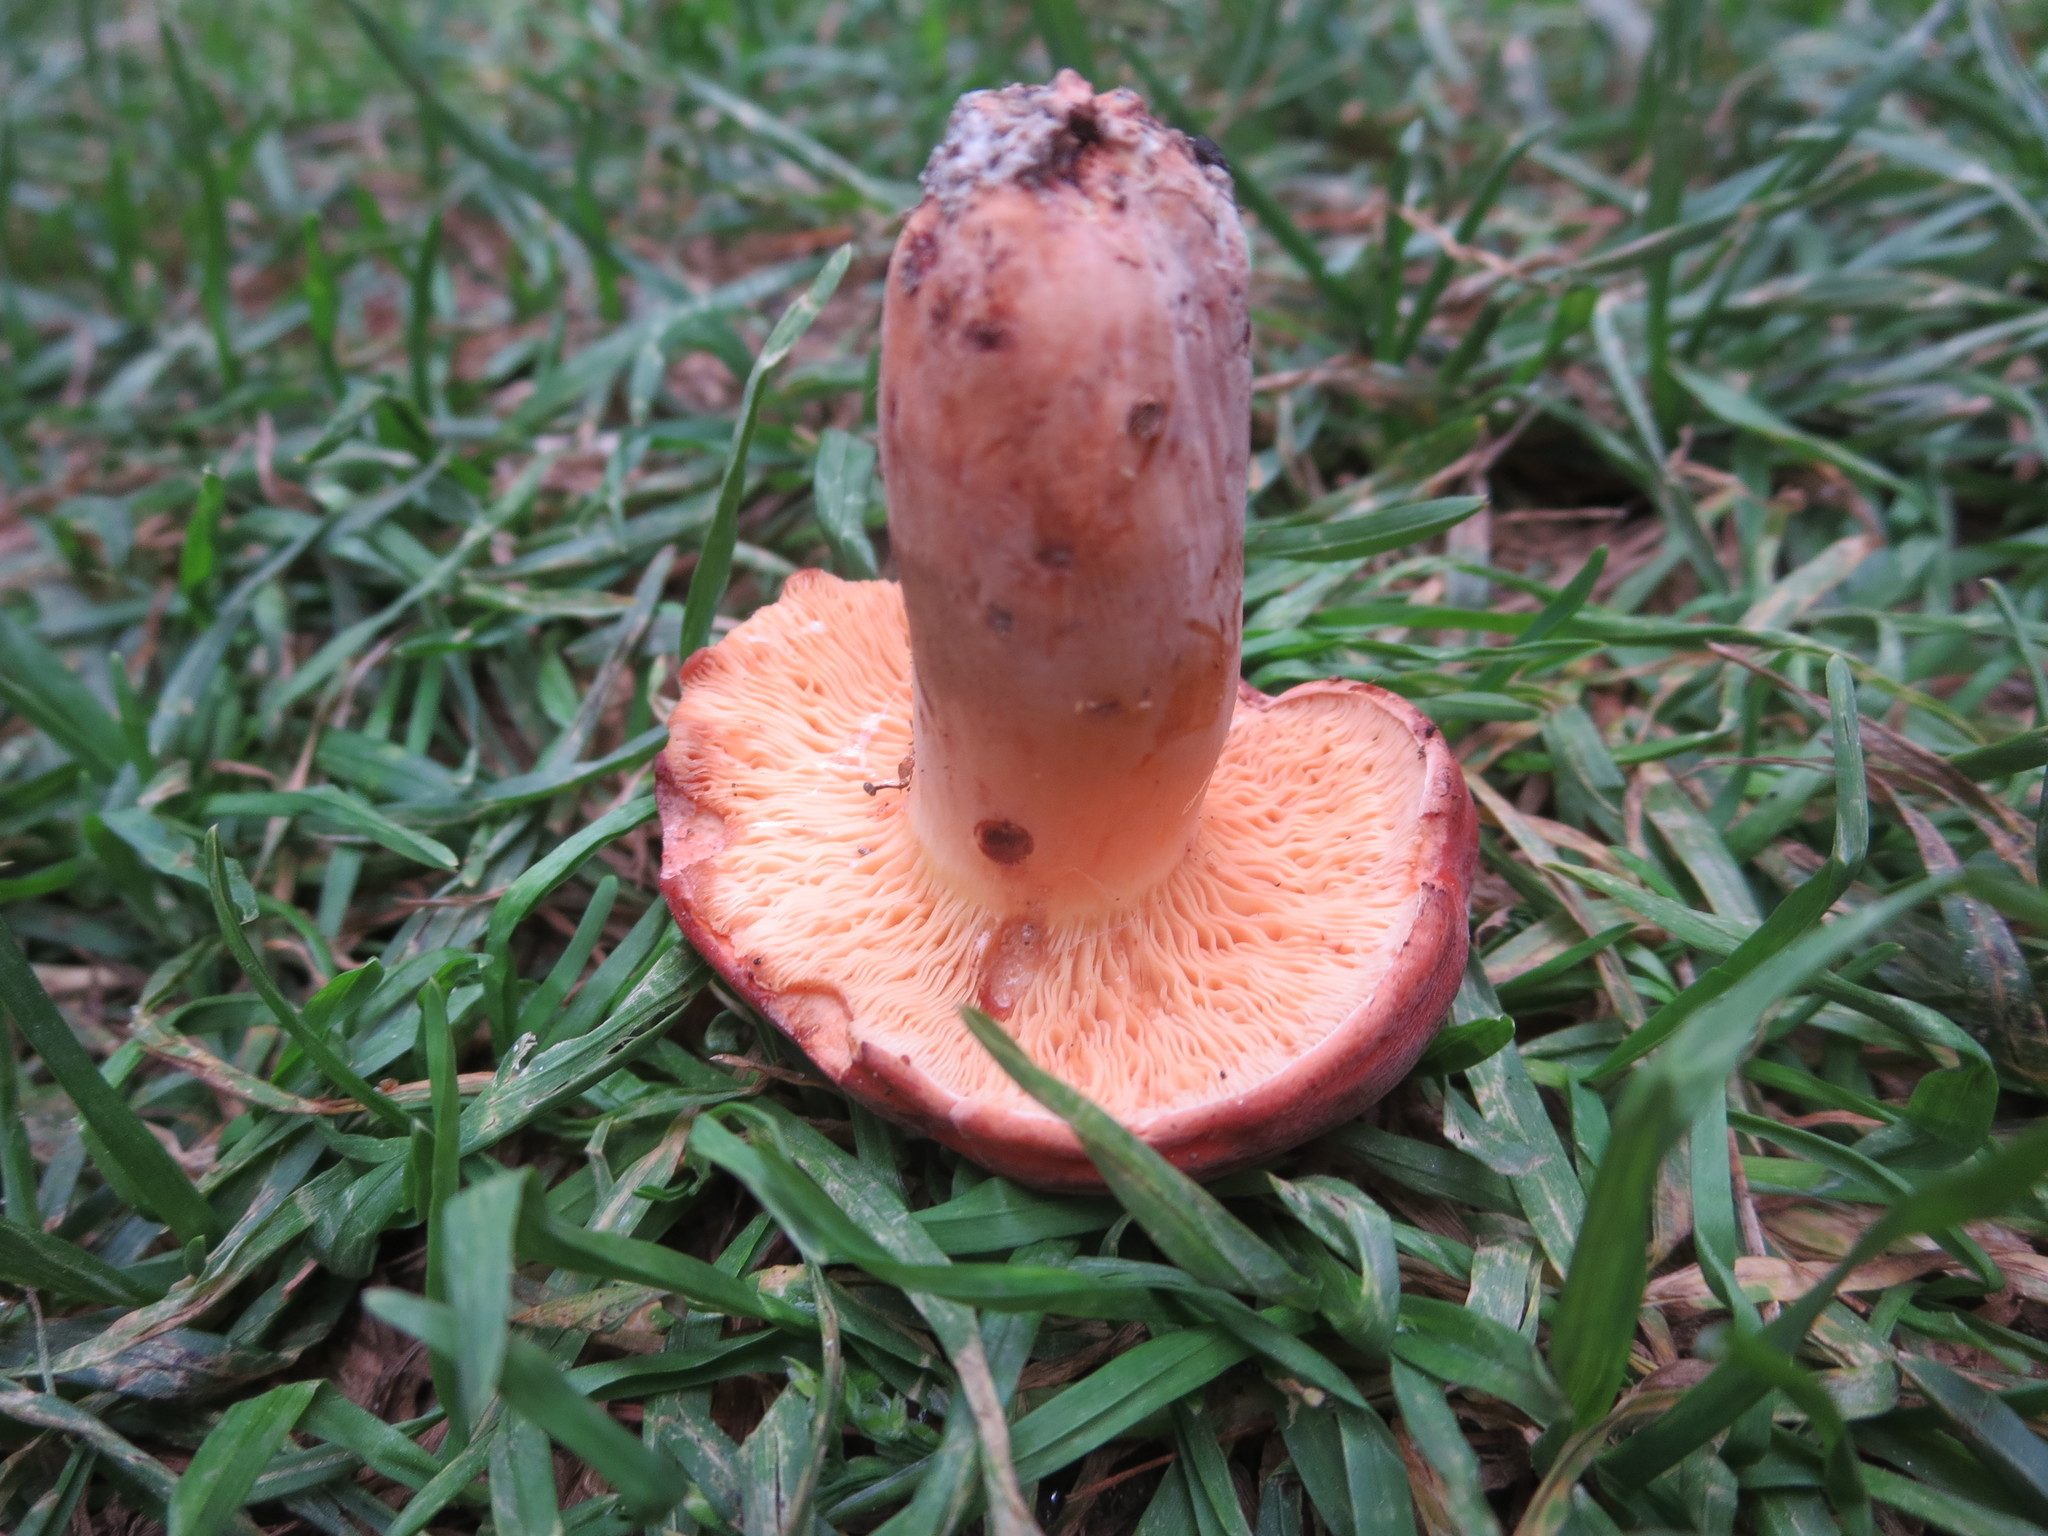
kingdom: Fungi
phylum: Basidiomycota
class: Agaricomycetes
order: Russulales
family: Russulaceae
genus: Lactifluus
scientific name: Lactifluus volemus
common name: Fishy milkcap
